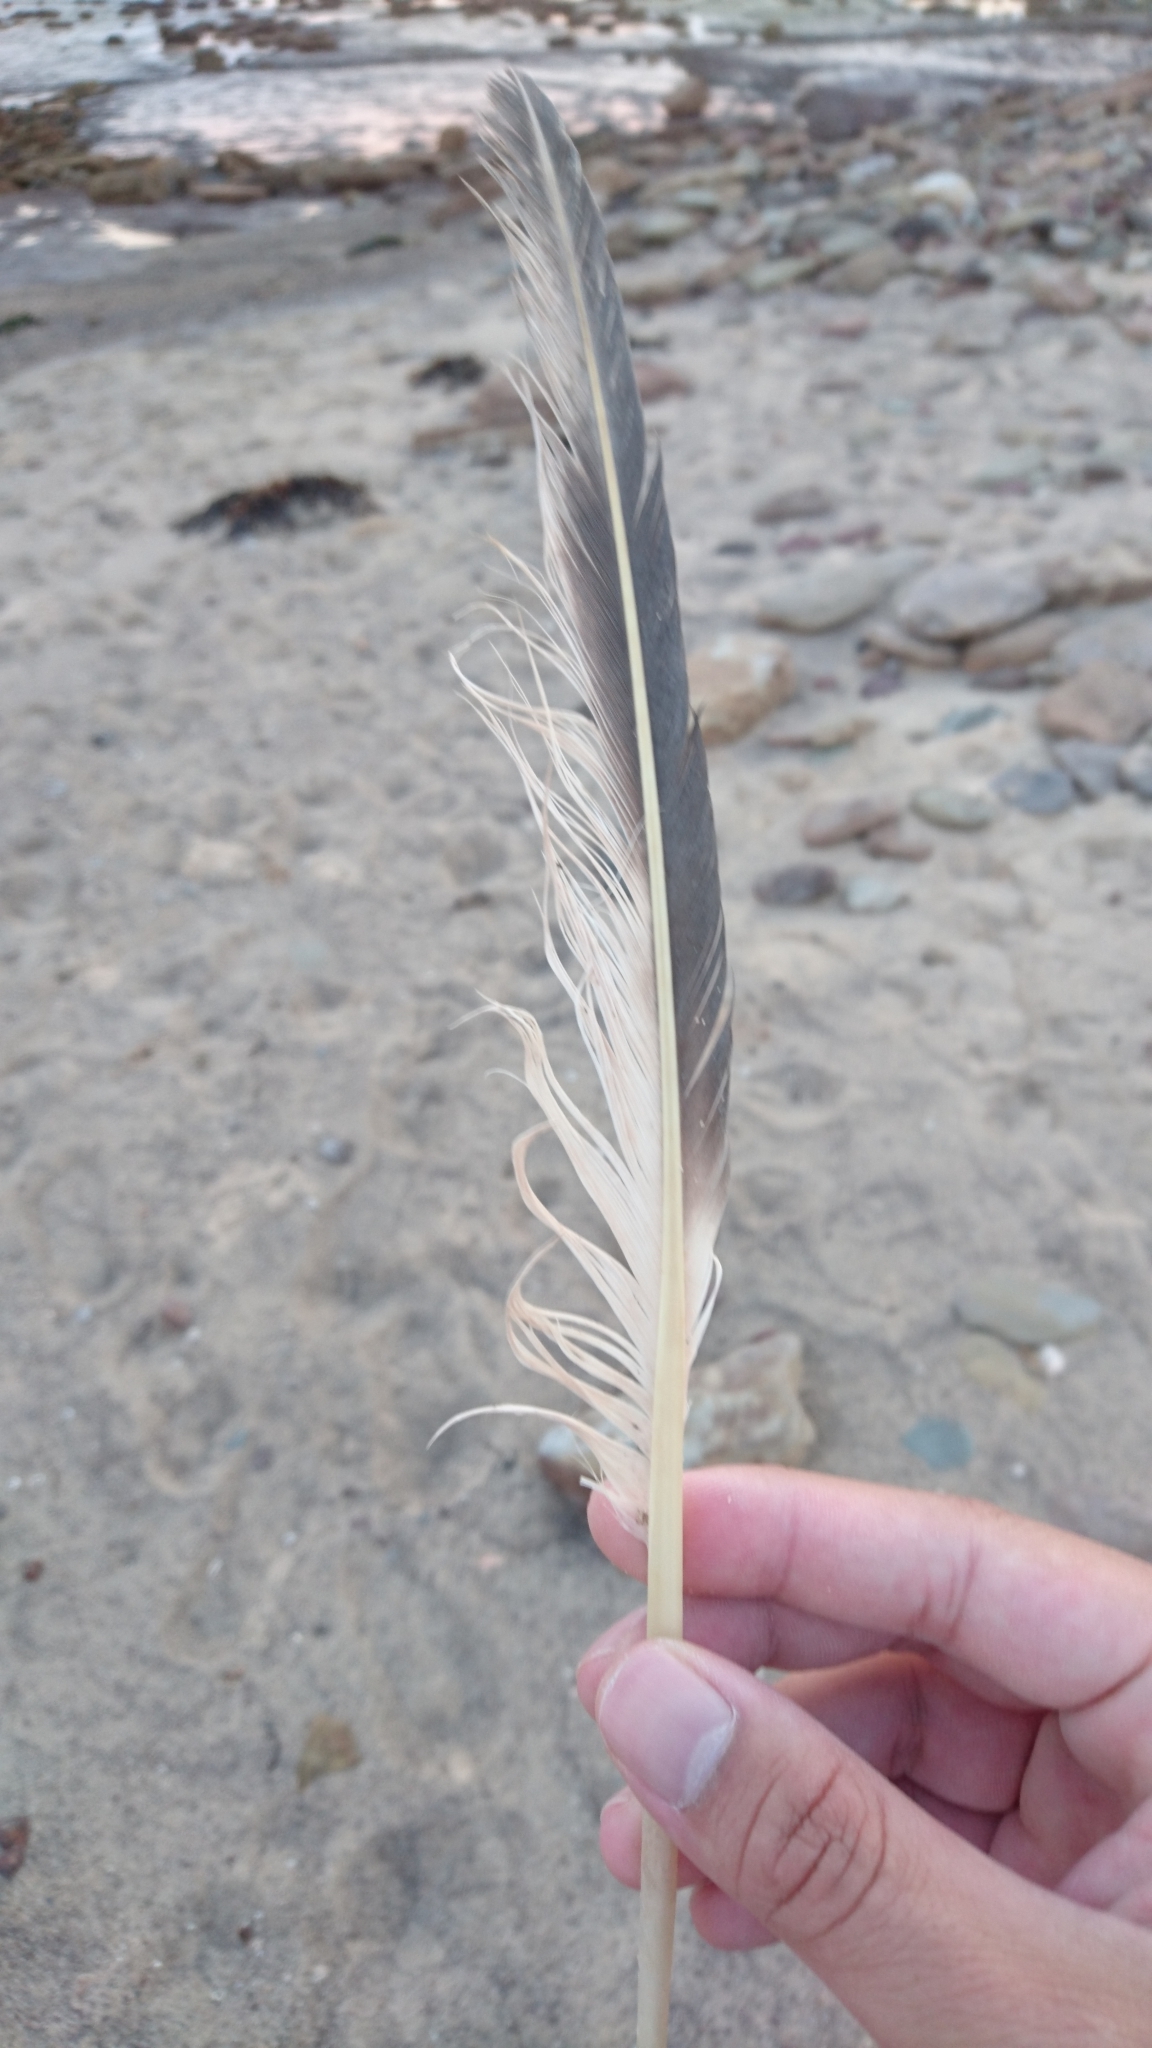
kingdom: Animalia
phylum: Chordata
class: Aves
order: Charadriiformes
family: Laridae
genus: Thalasseus
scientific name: Thalasseus bergii
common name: Greater crested tern
